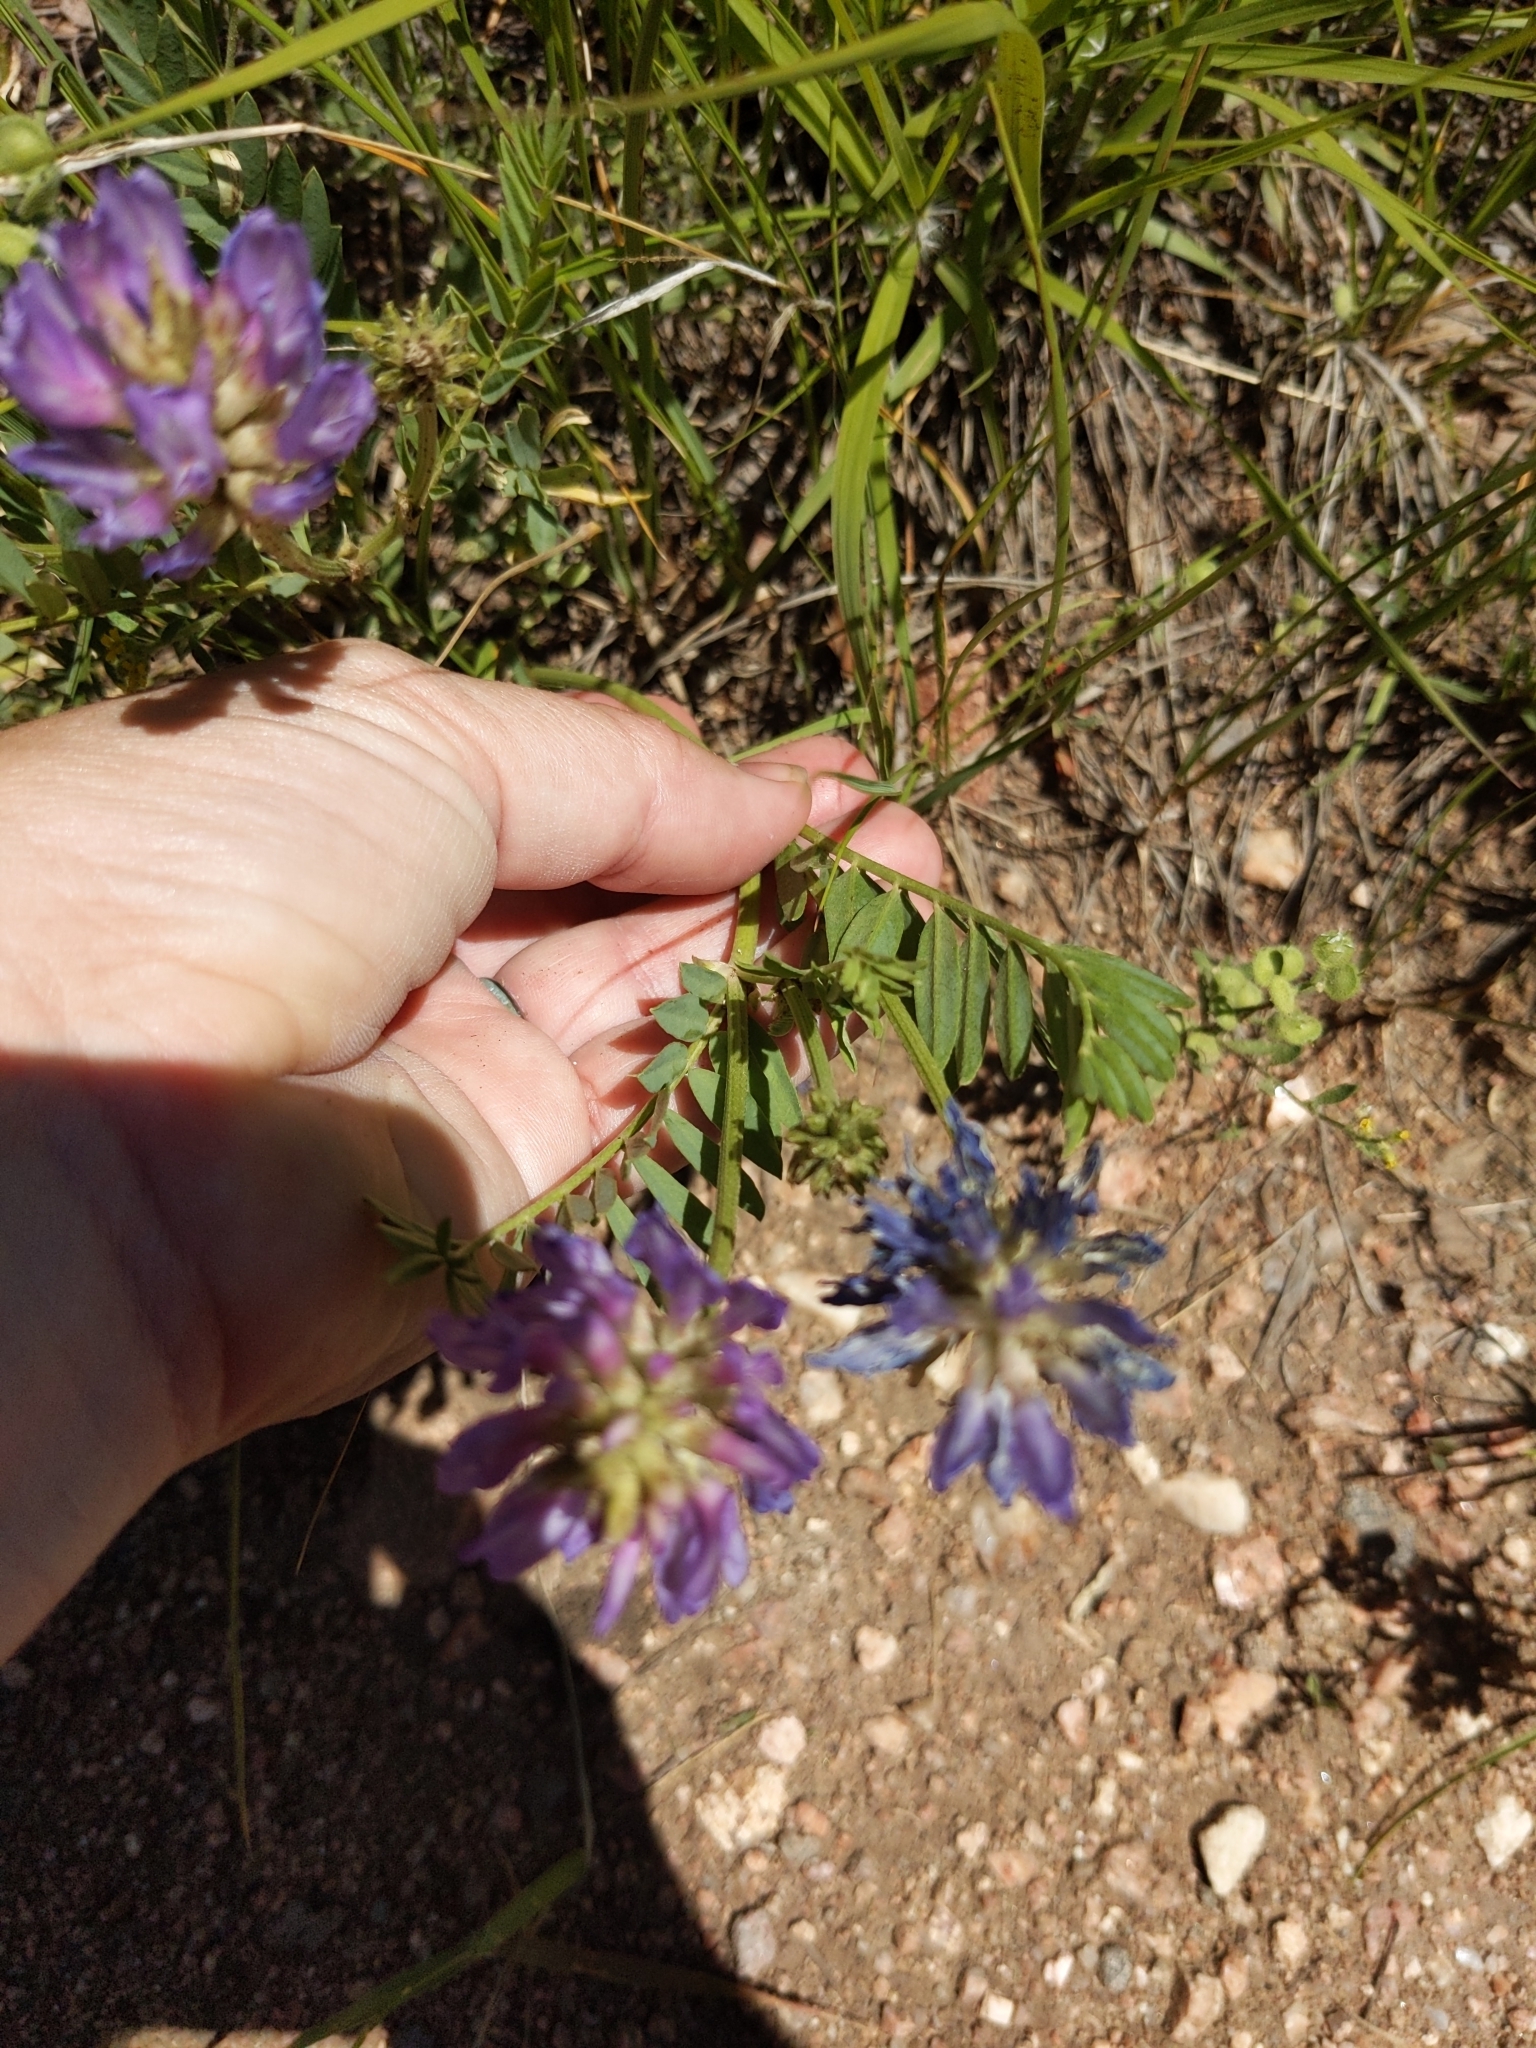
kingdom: Plantae
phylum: Tracheophyta
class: Magnoliopsida
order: Fabales
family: Fabaceae
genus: Astragalus
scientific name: Astragalus laxmannii
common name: Laxmann's milk-vetch
